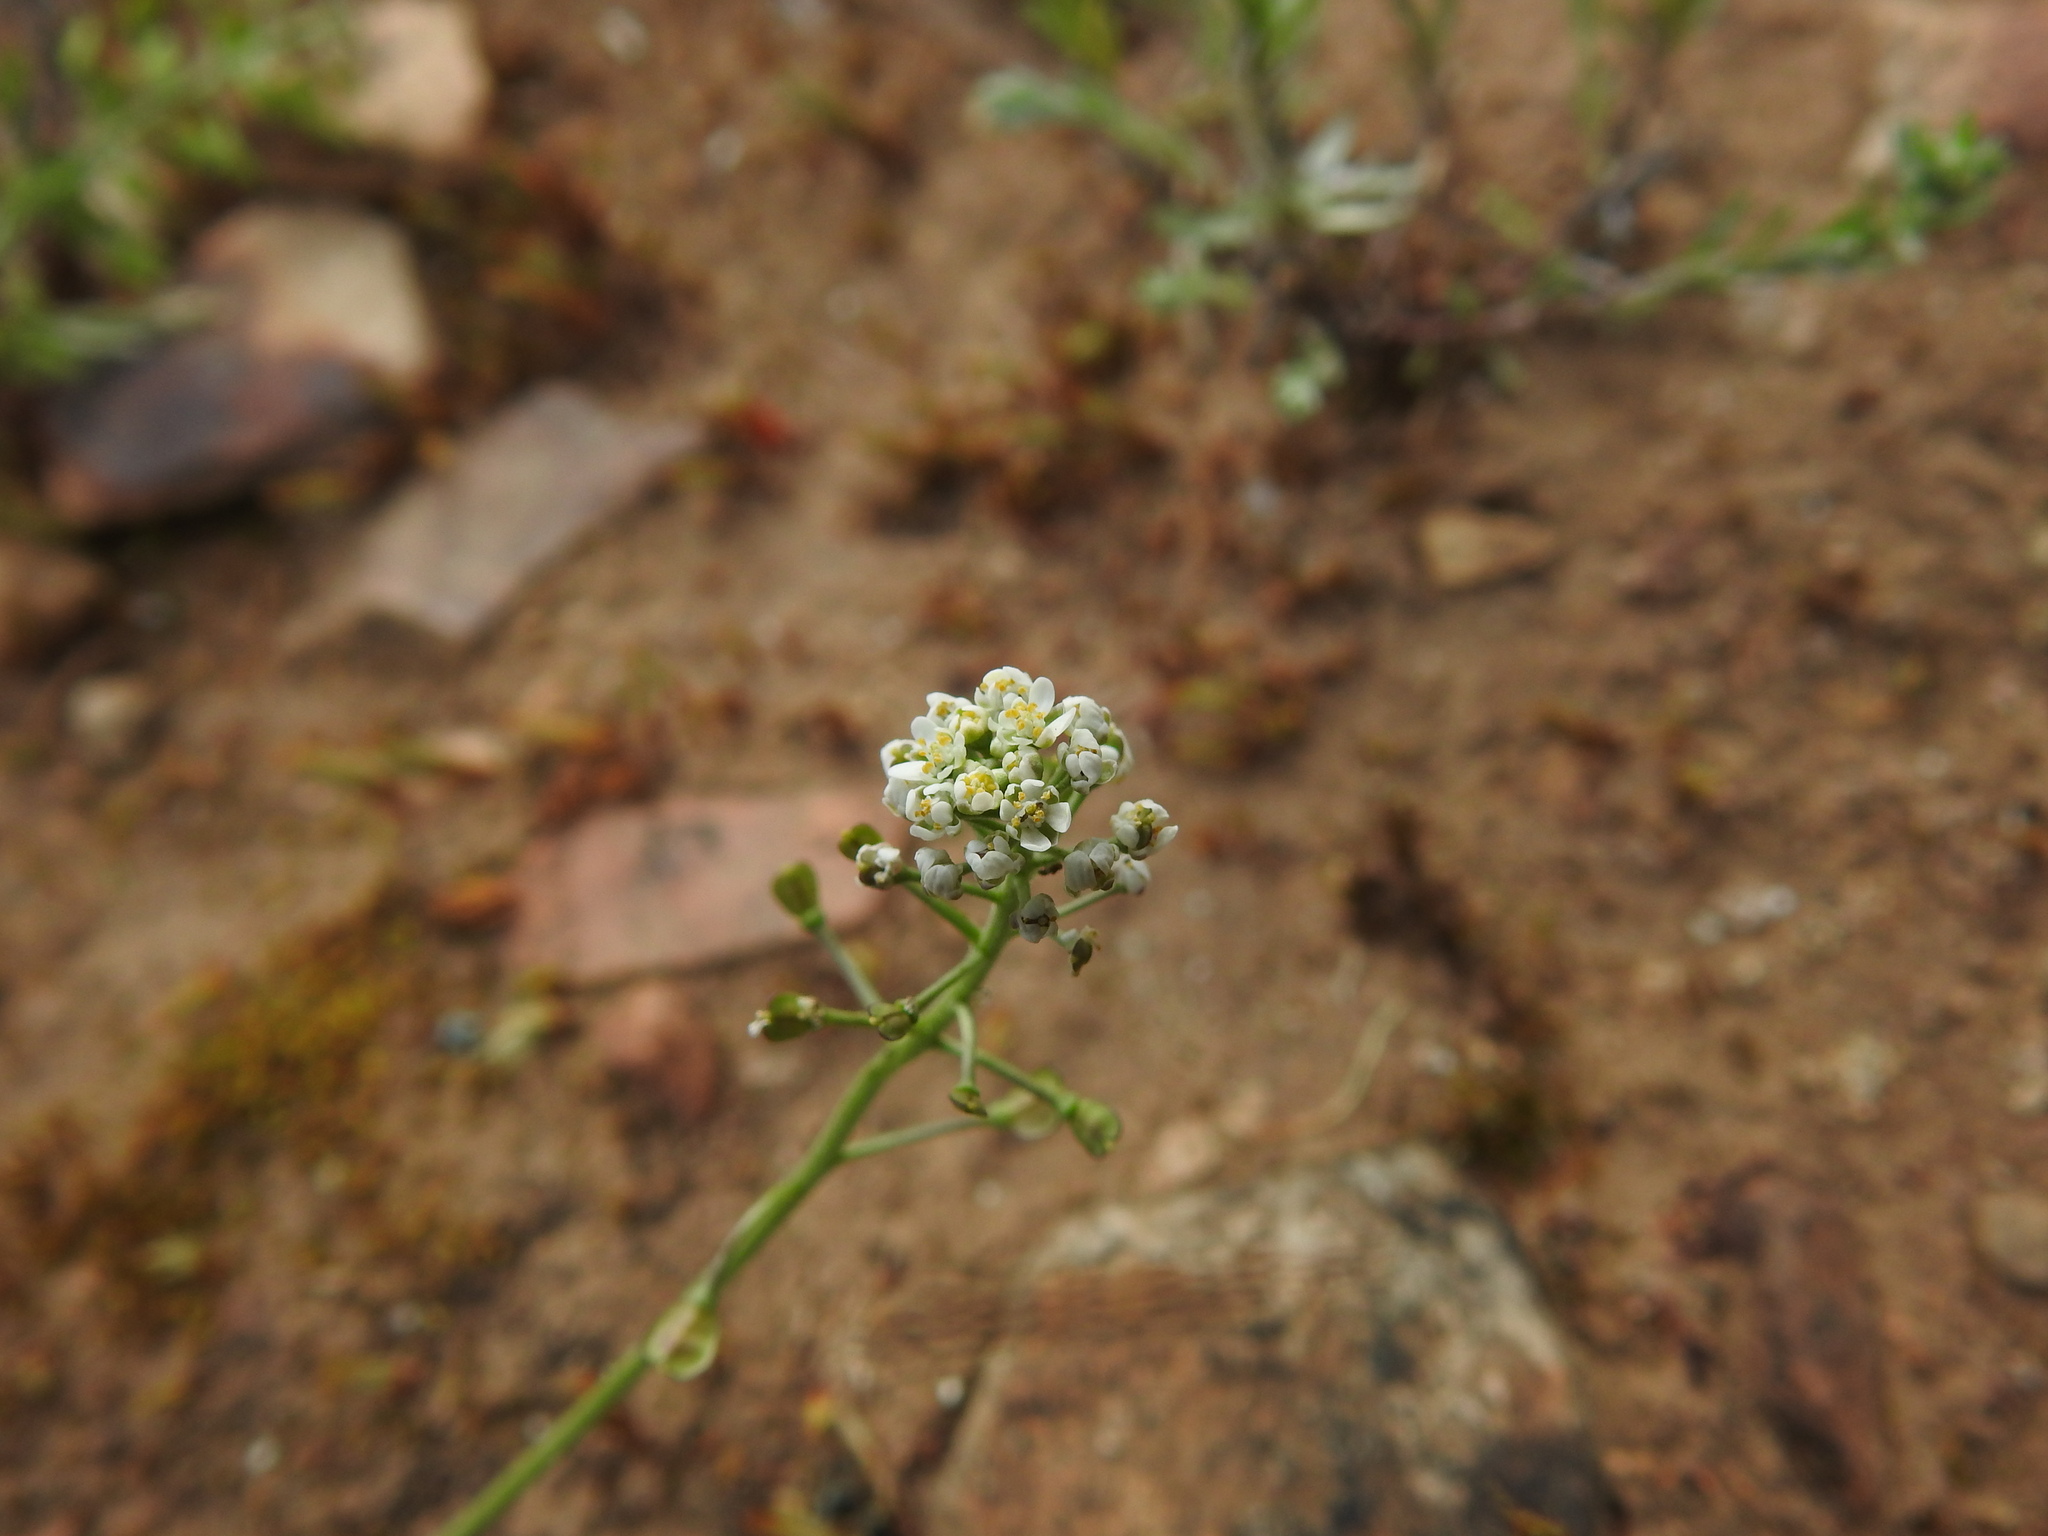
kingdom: Plantae
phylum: Tracheophyta
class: Magnoliopsida
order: Brassicales
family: Brassicaceae
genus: Teesdalia
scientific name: Teesdalia nudicaulis
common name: Shepherd's cress
